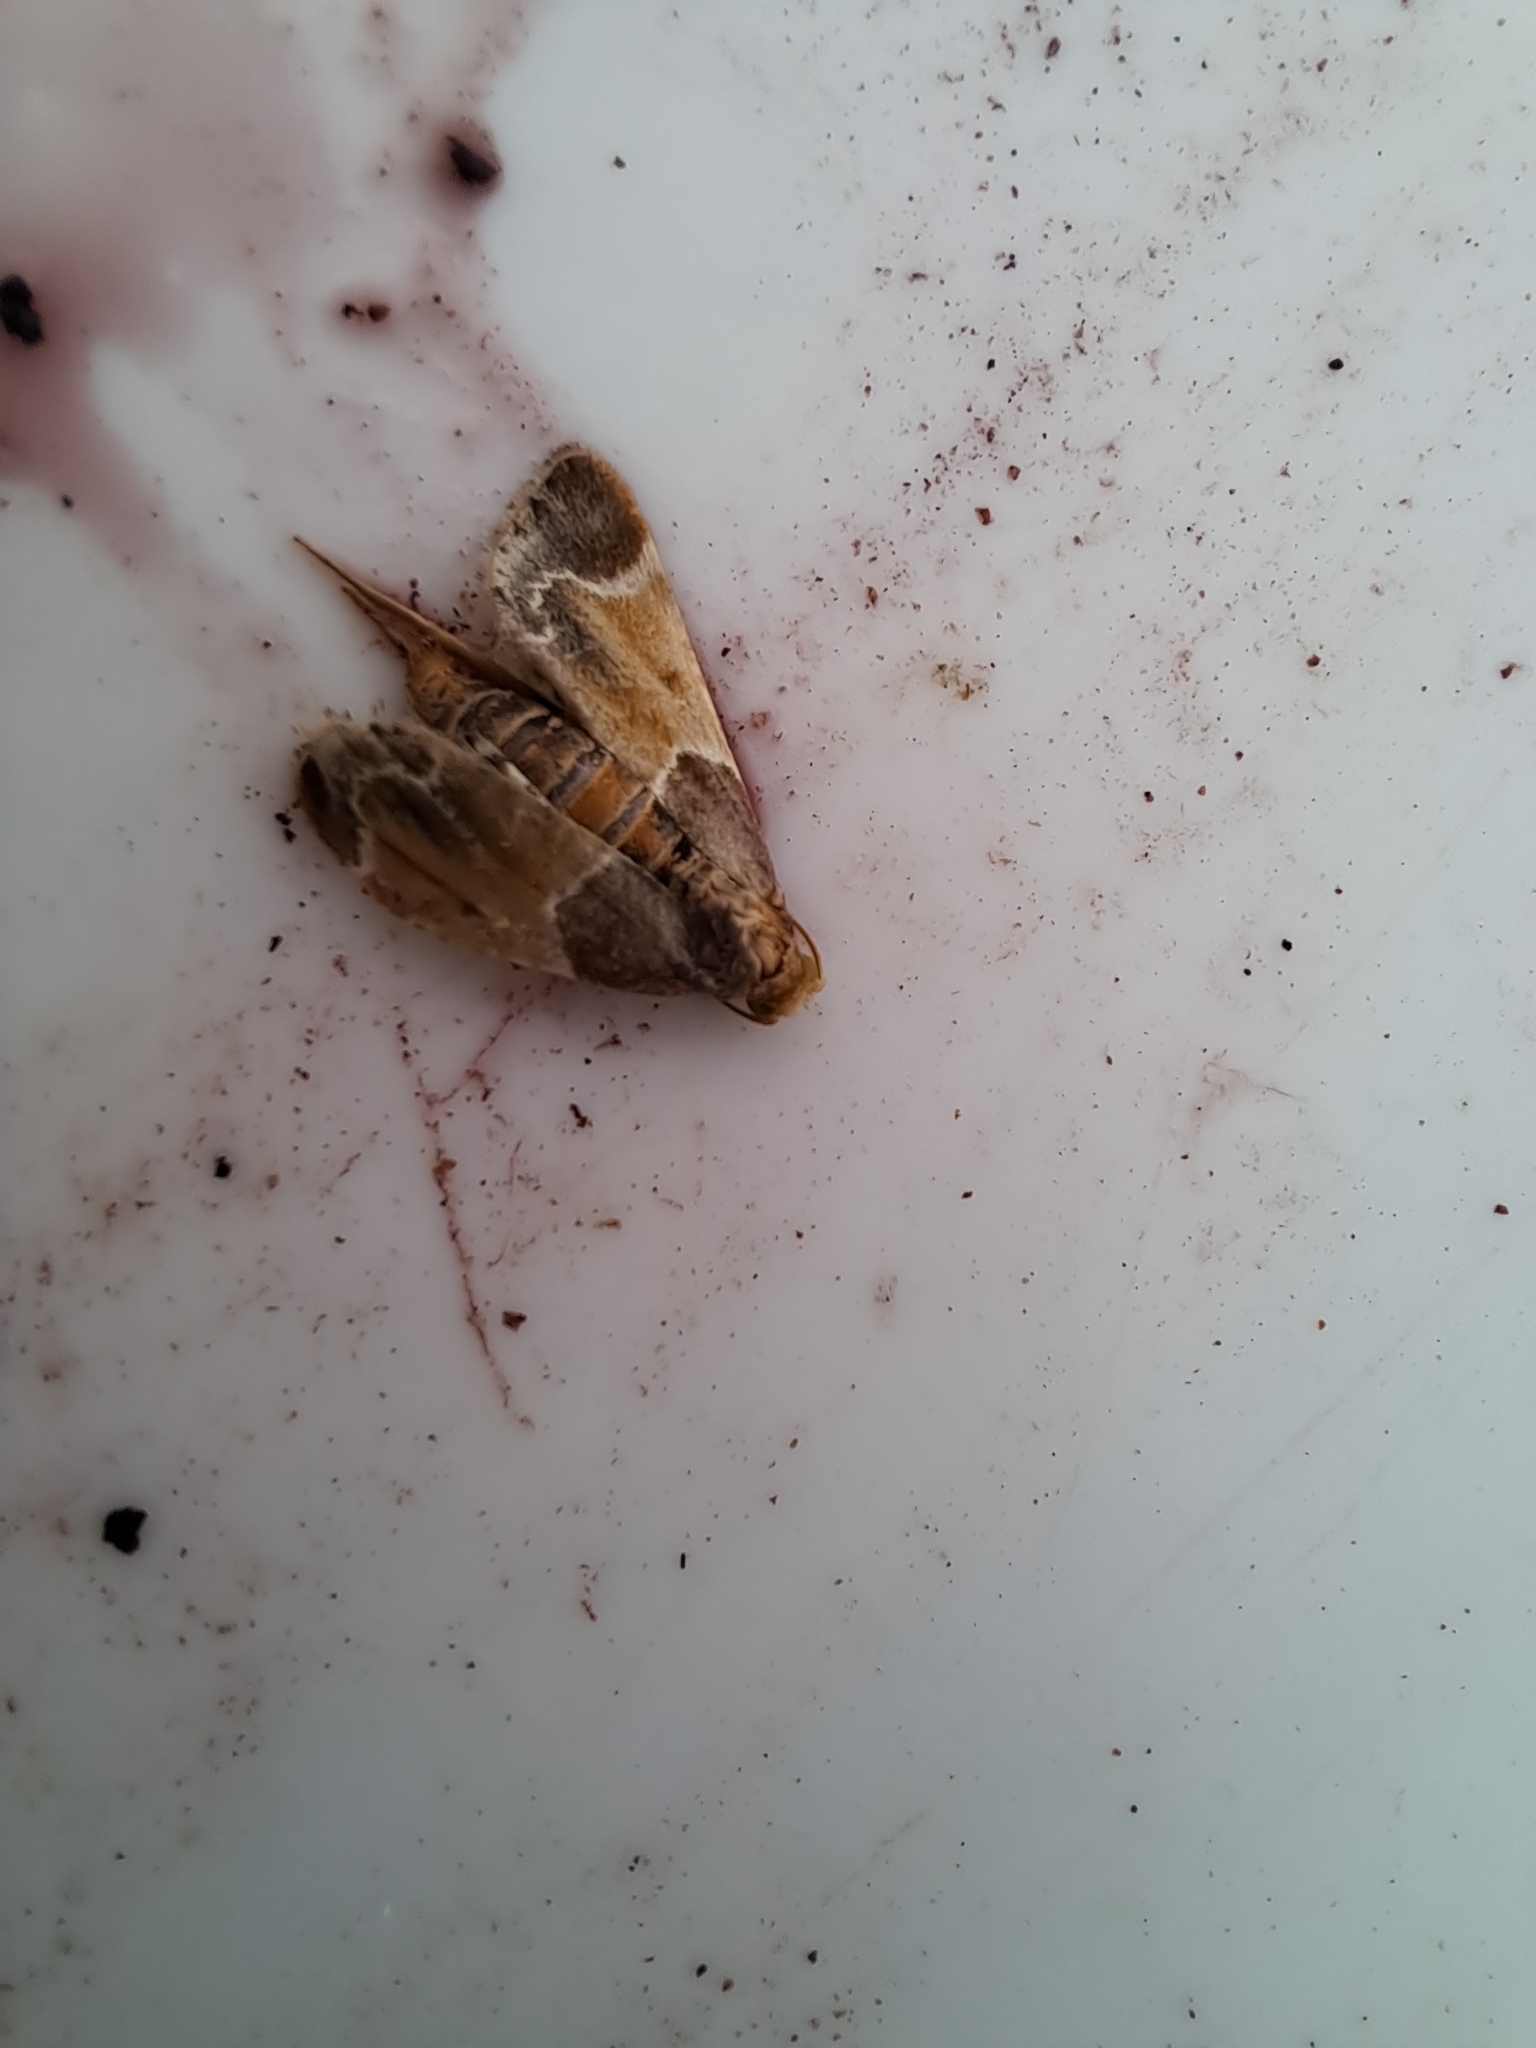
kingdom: Animalia
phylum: Arthropoda
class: Insecta
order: Lepidoptera
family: Pyralidae
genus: Pyralis
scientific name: Pyralis farinalis
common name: Meal moth
